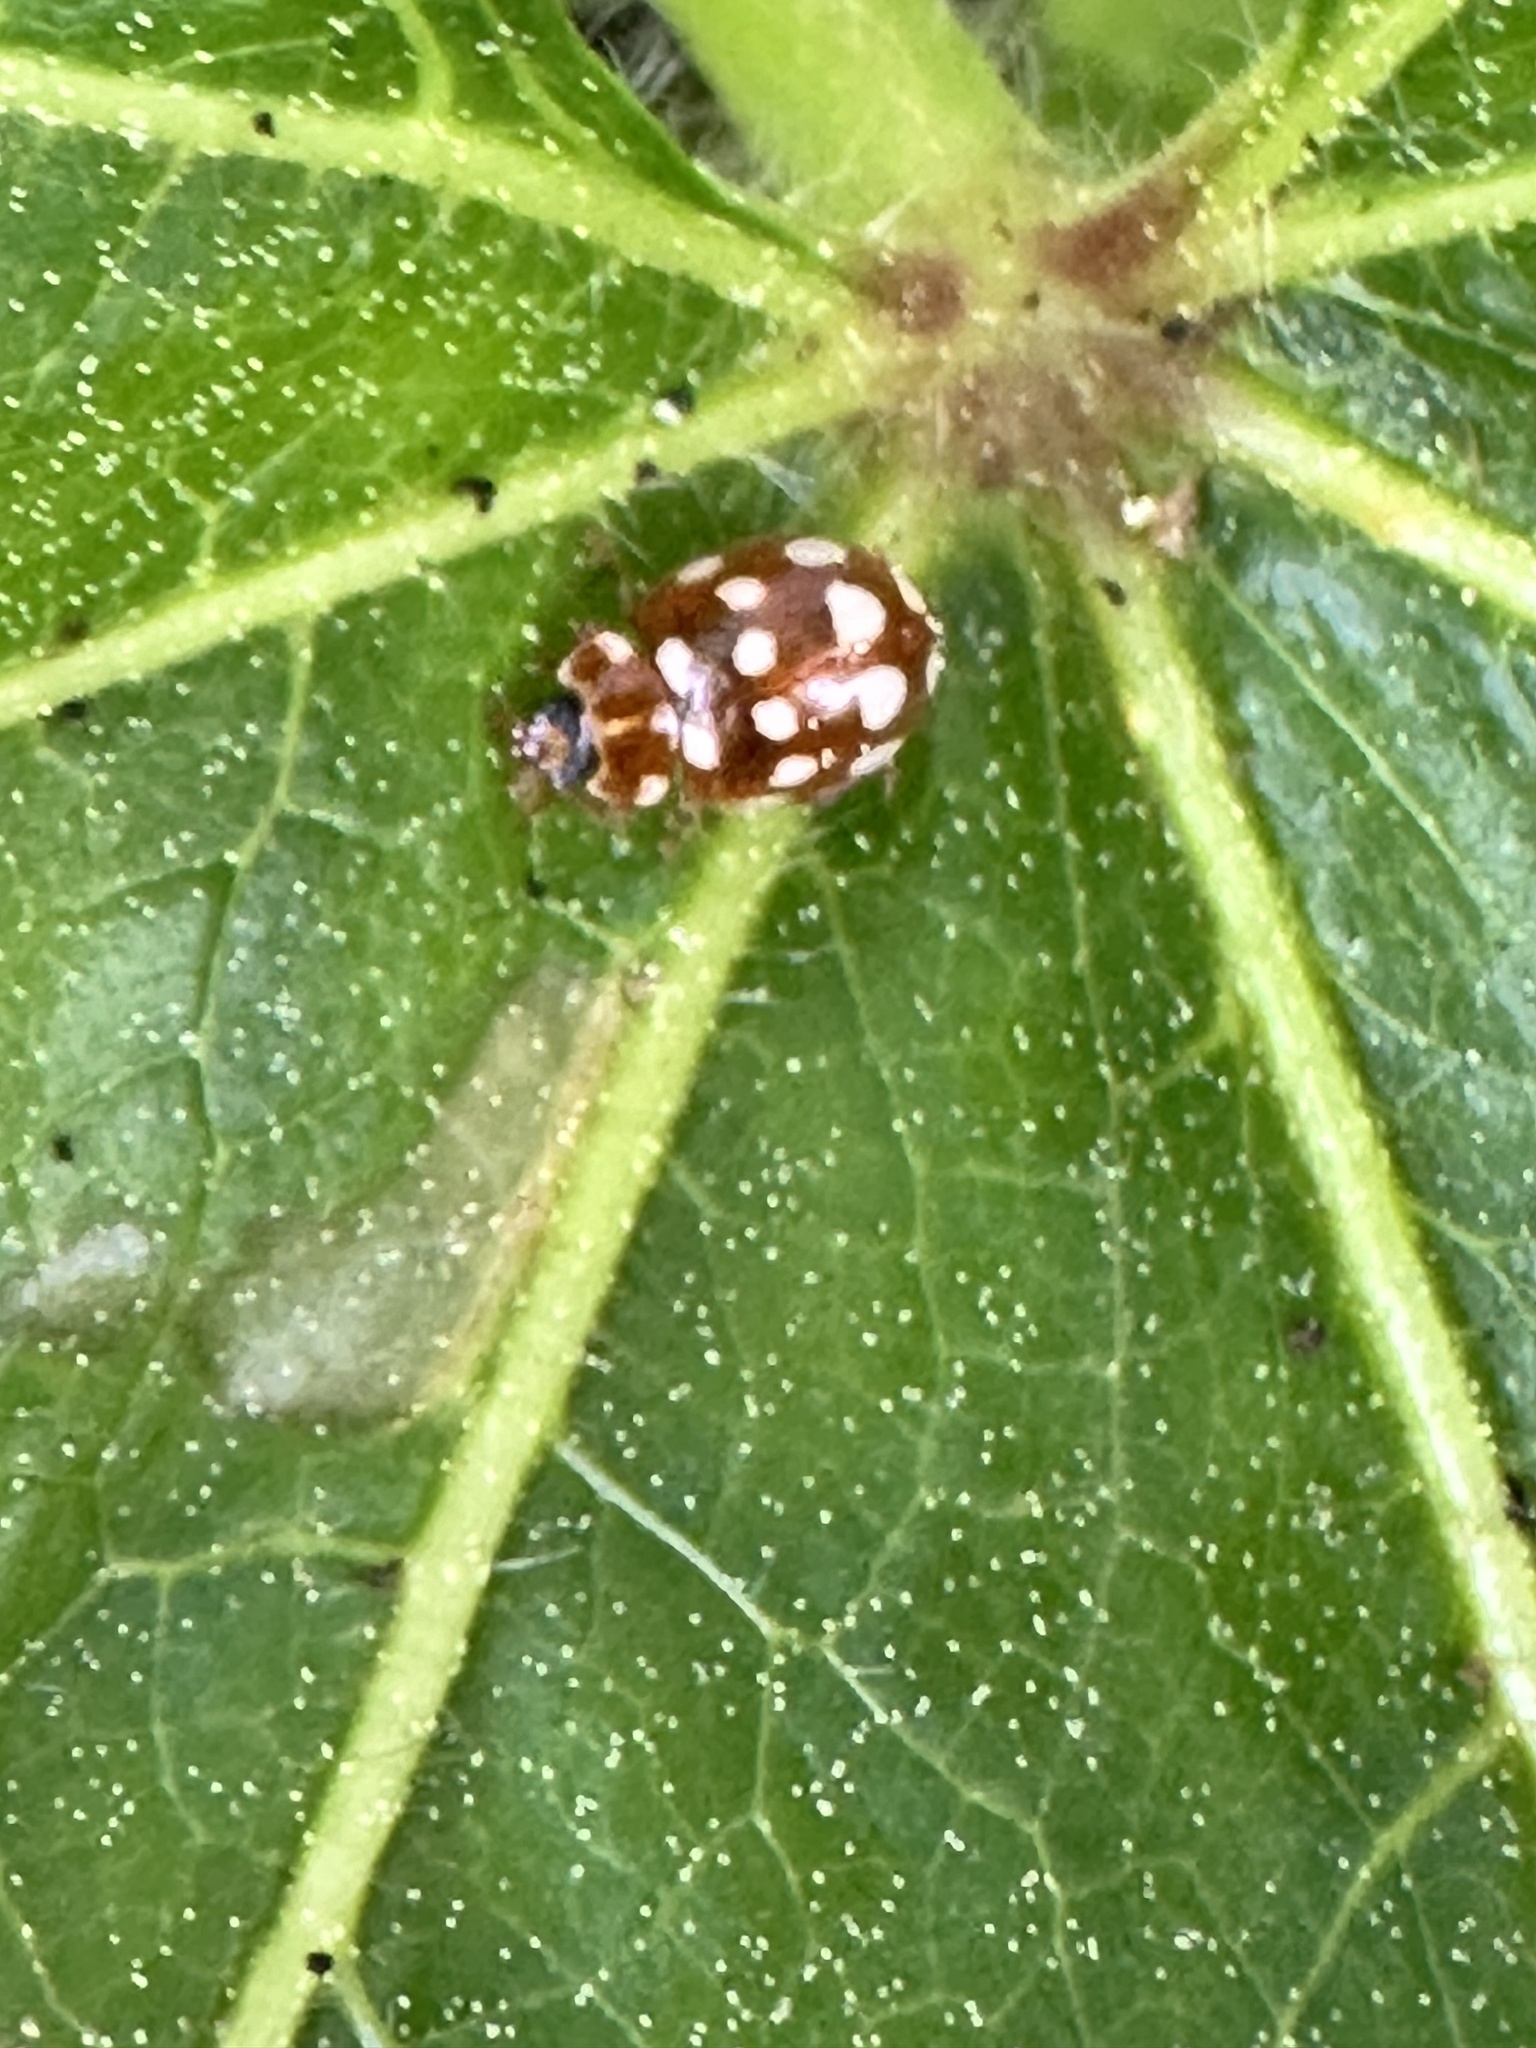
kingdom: Animalia
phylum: Arthropoda
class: Insecta
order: Coleoptera
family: Coccinellidae
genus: Calvia
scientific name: Calvia quatuordecimguttata
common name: Cream-spot ladybird
